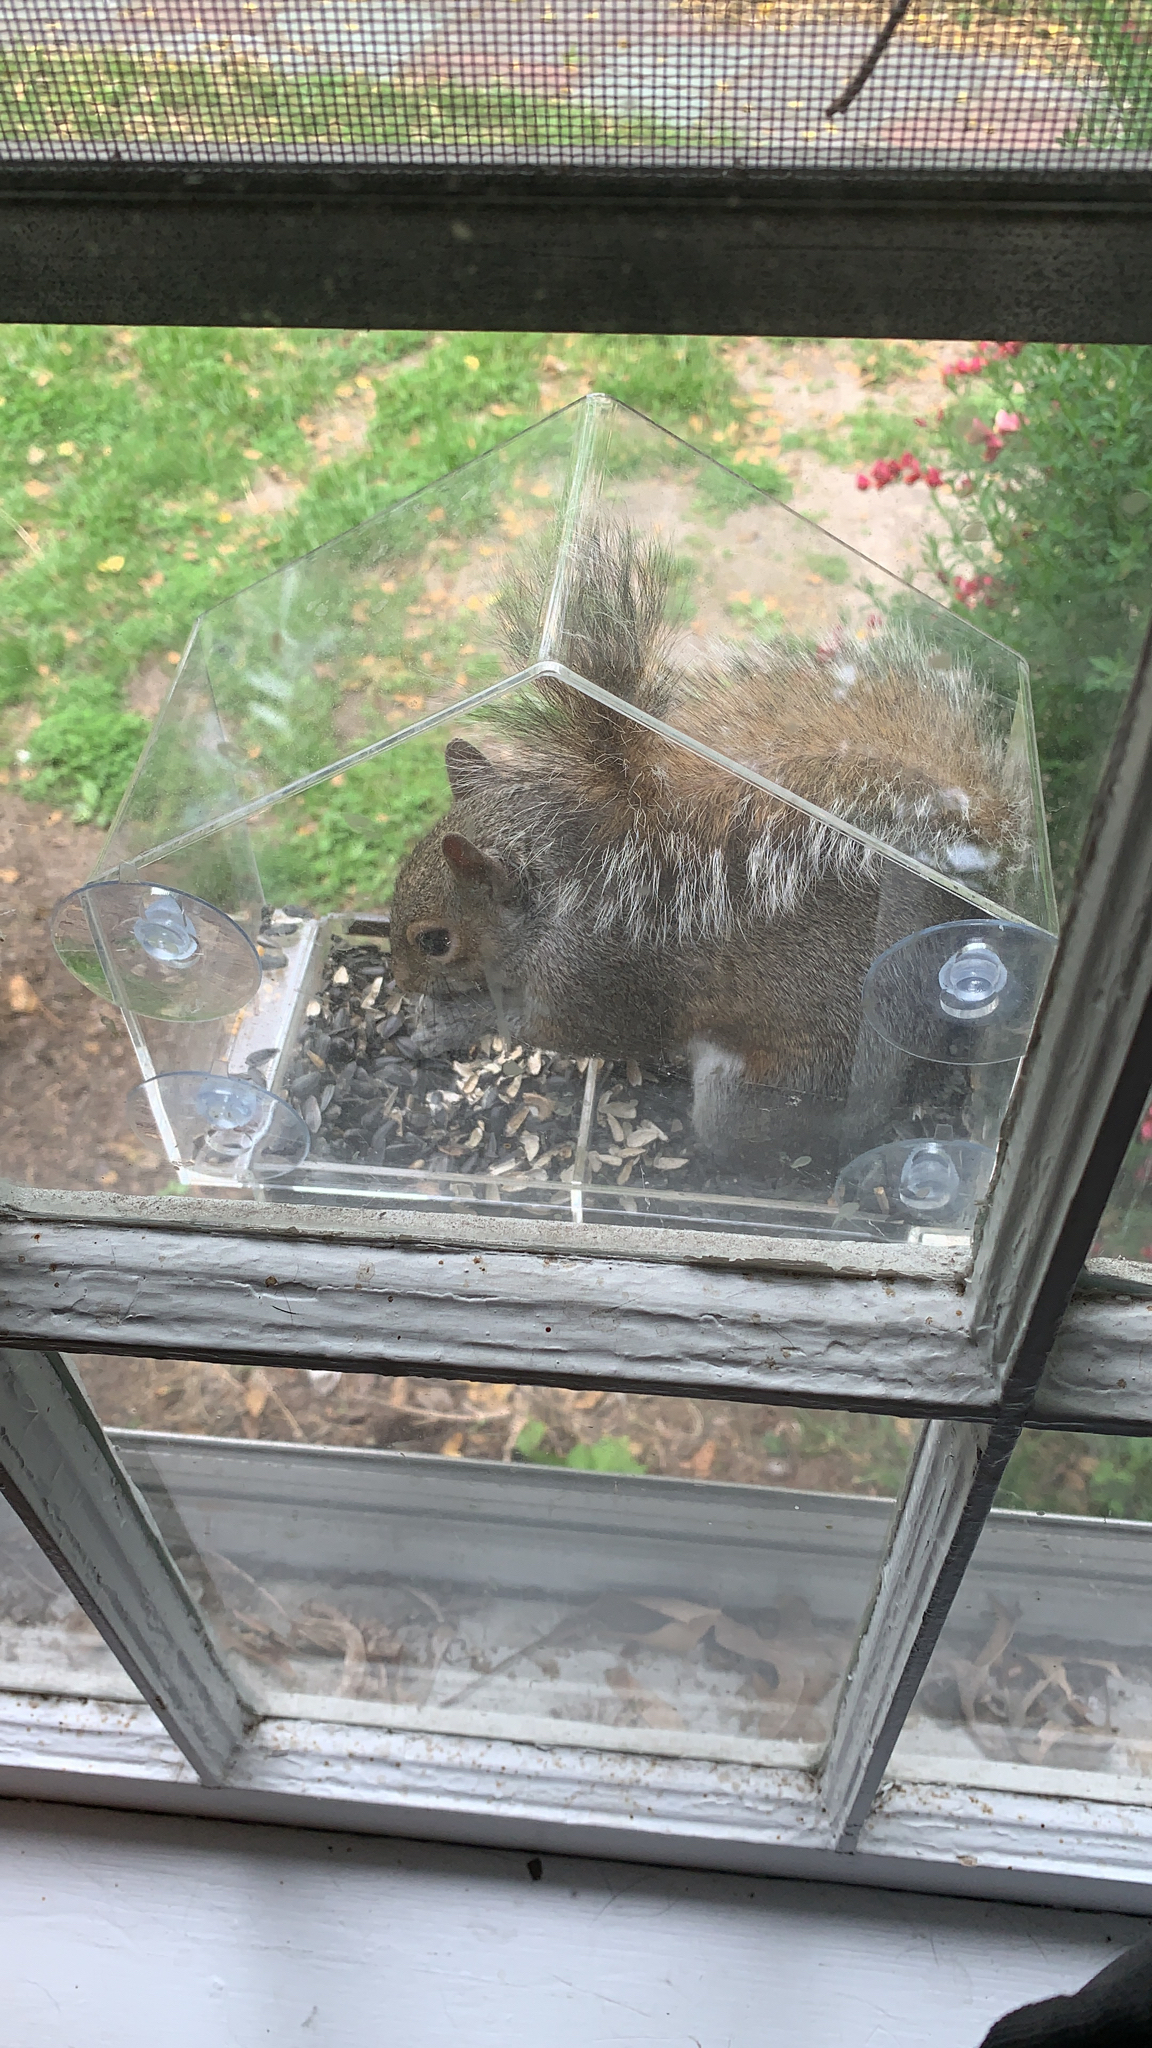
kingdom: Animalia
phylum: Chordata
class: Mammalia
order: Rodentia
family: Sciuridae
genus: Sciurus
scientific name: Sciurus carolinensis
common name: Eastern gray squirrel
